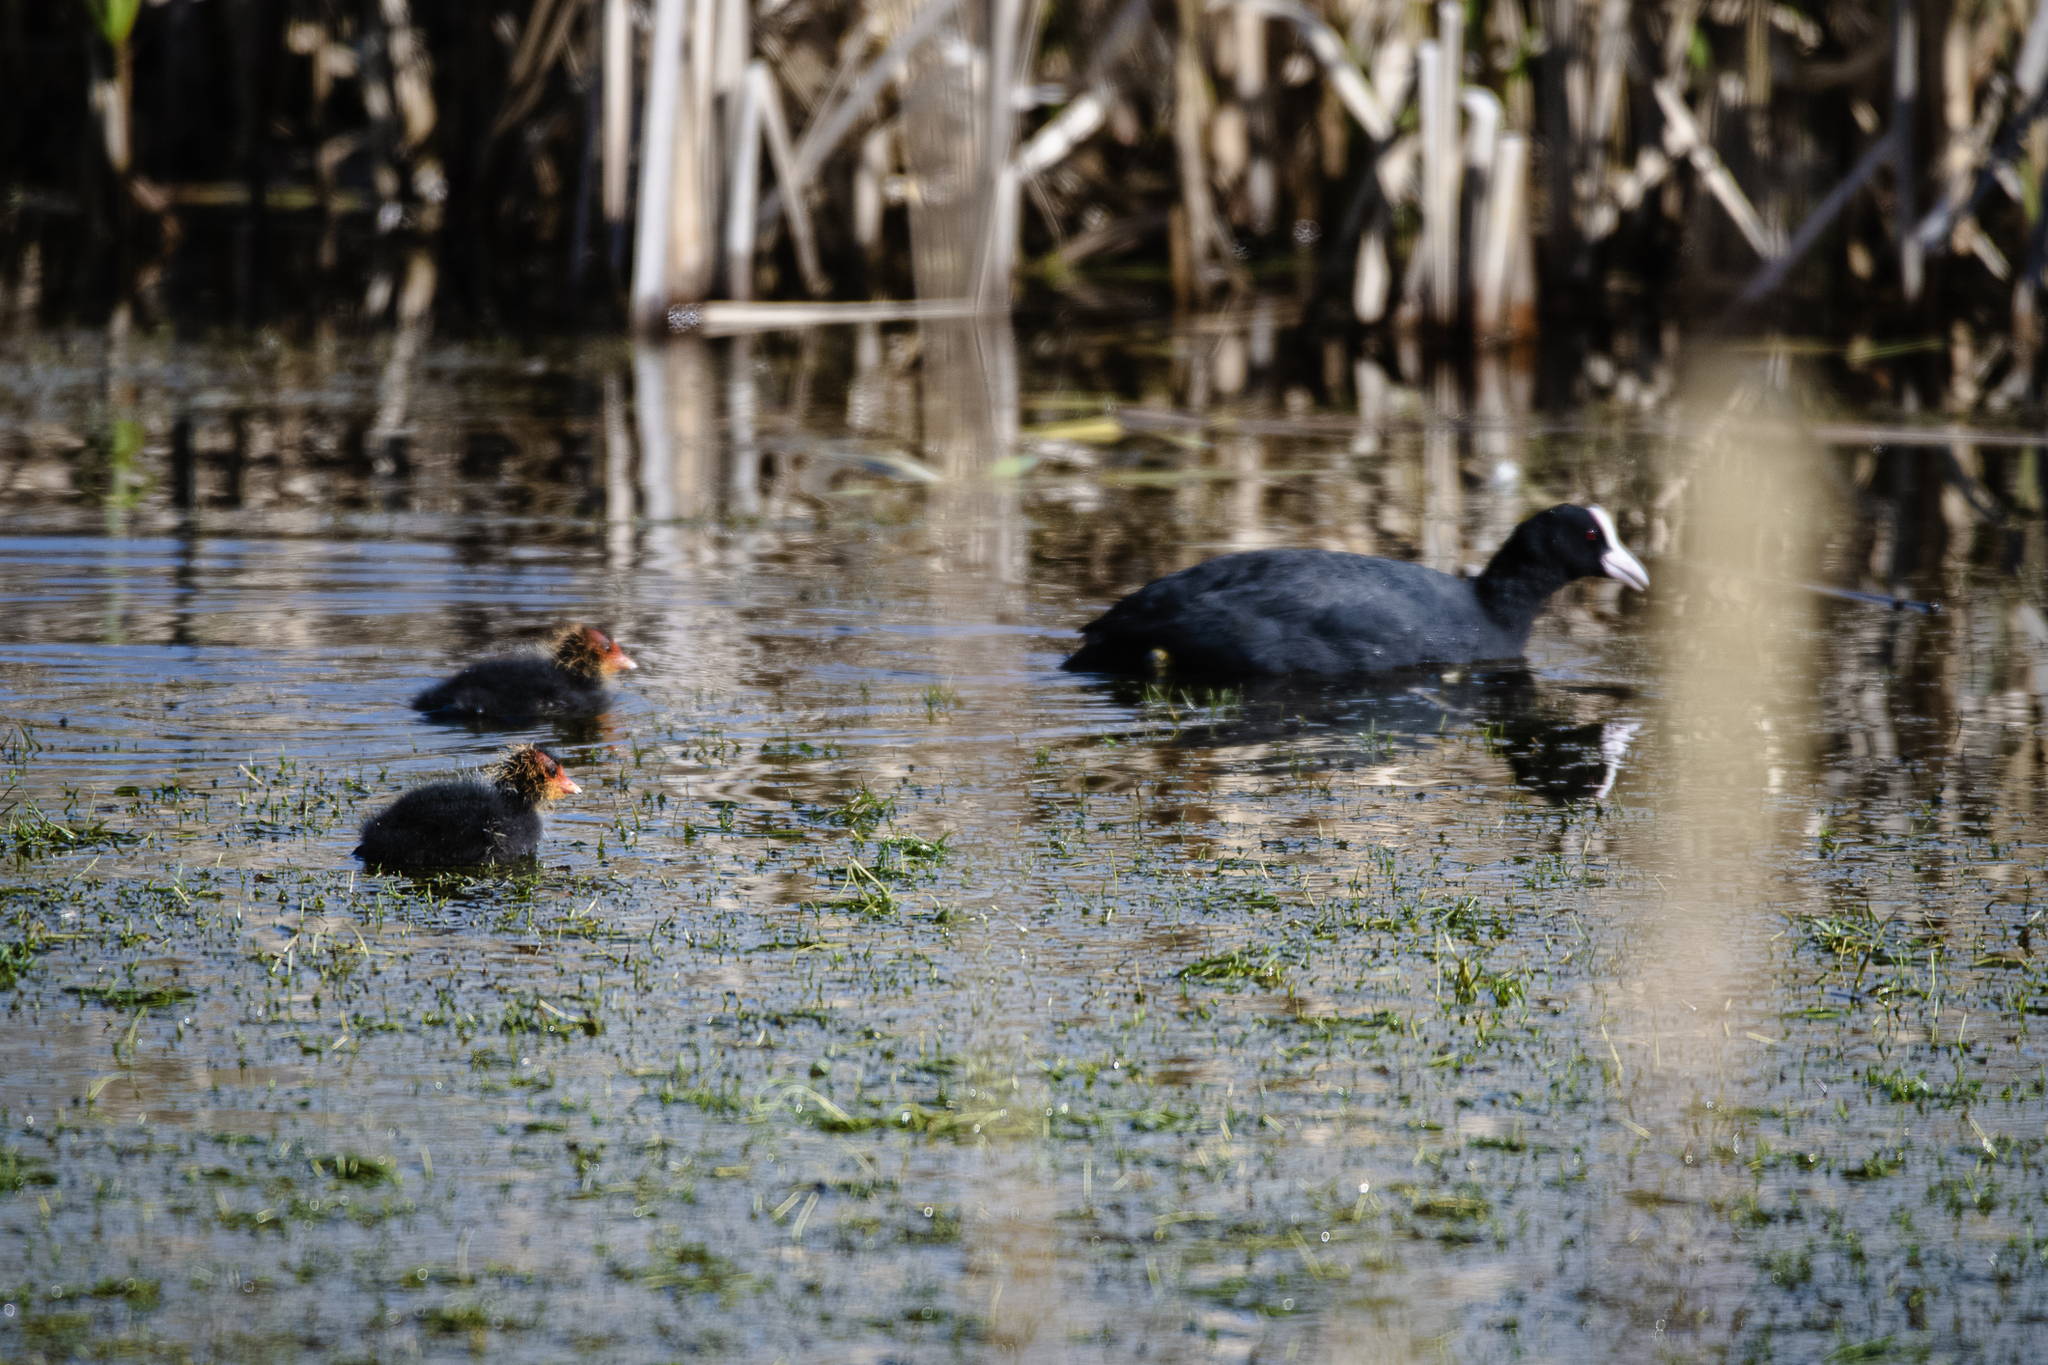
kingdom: Animalia
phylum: Chordata
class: Aves
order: Gruiformes
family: Rallidae
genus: Fulica
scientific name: Fulica atra
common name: Eurasian coot
